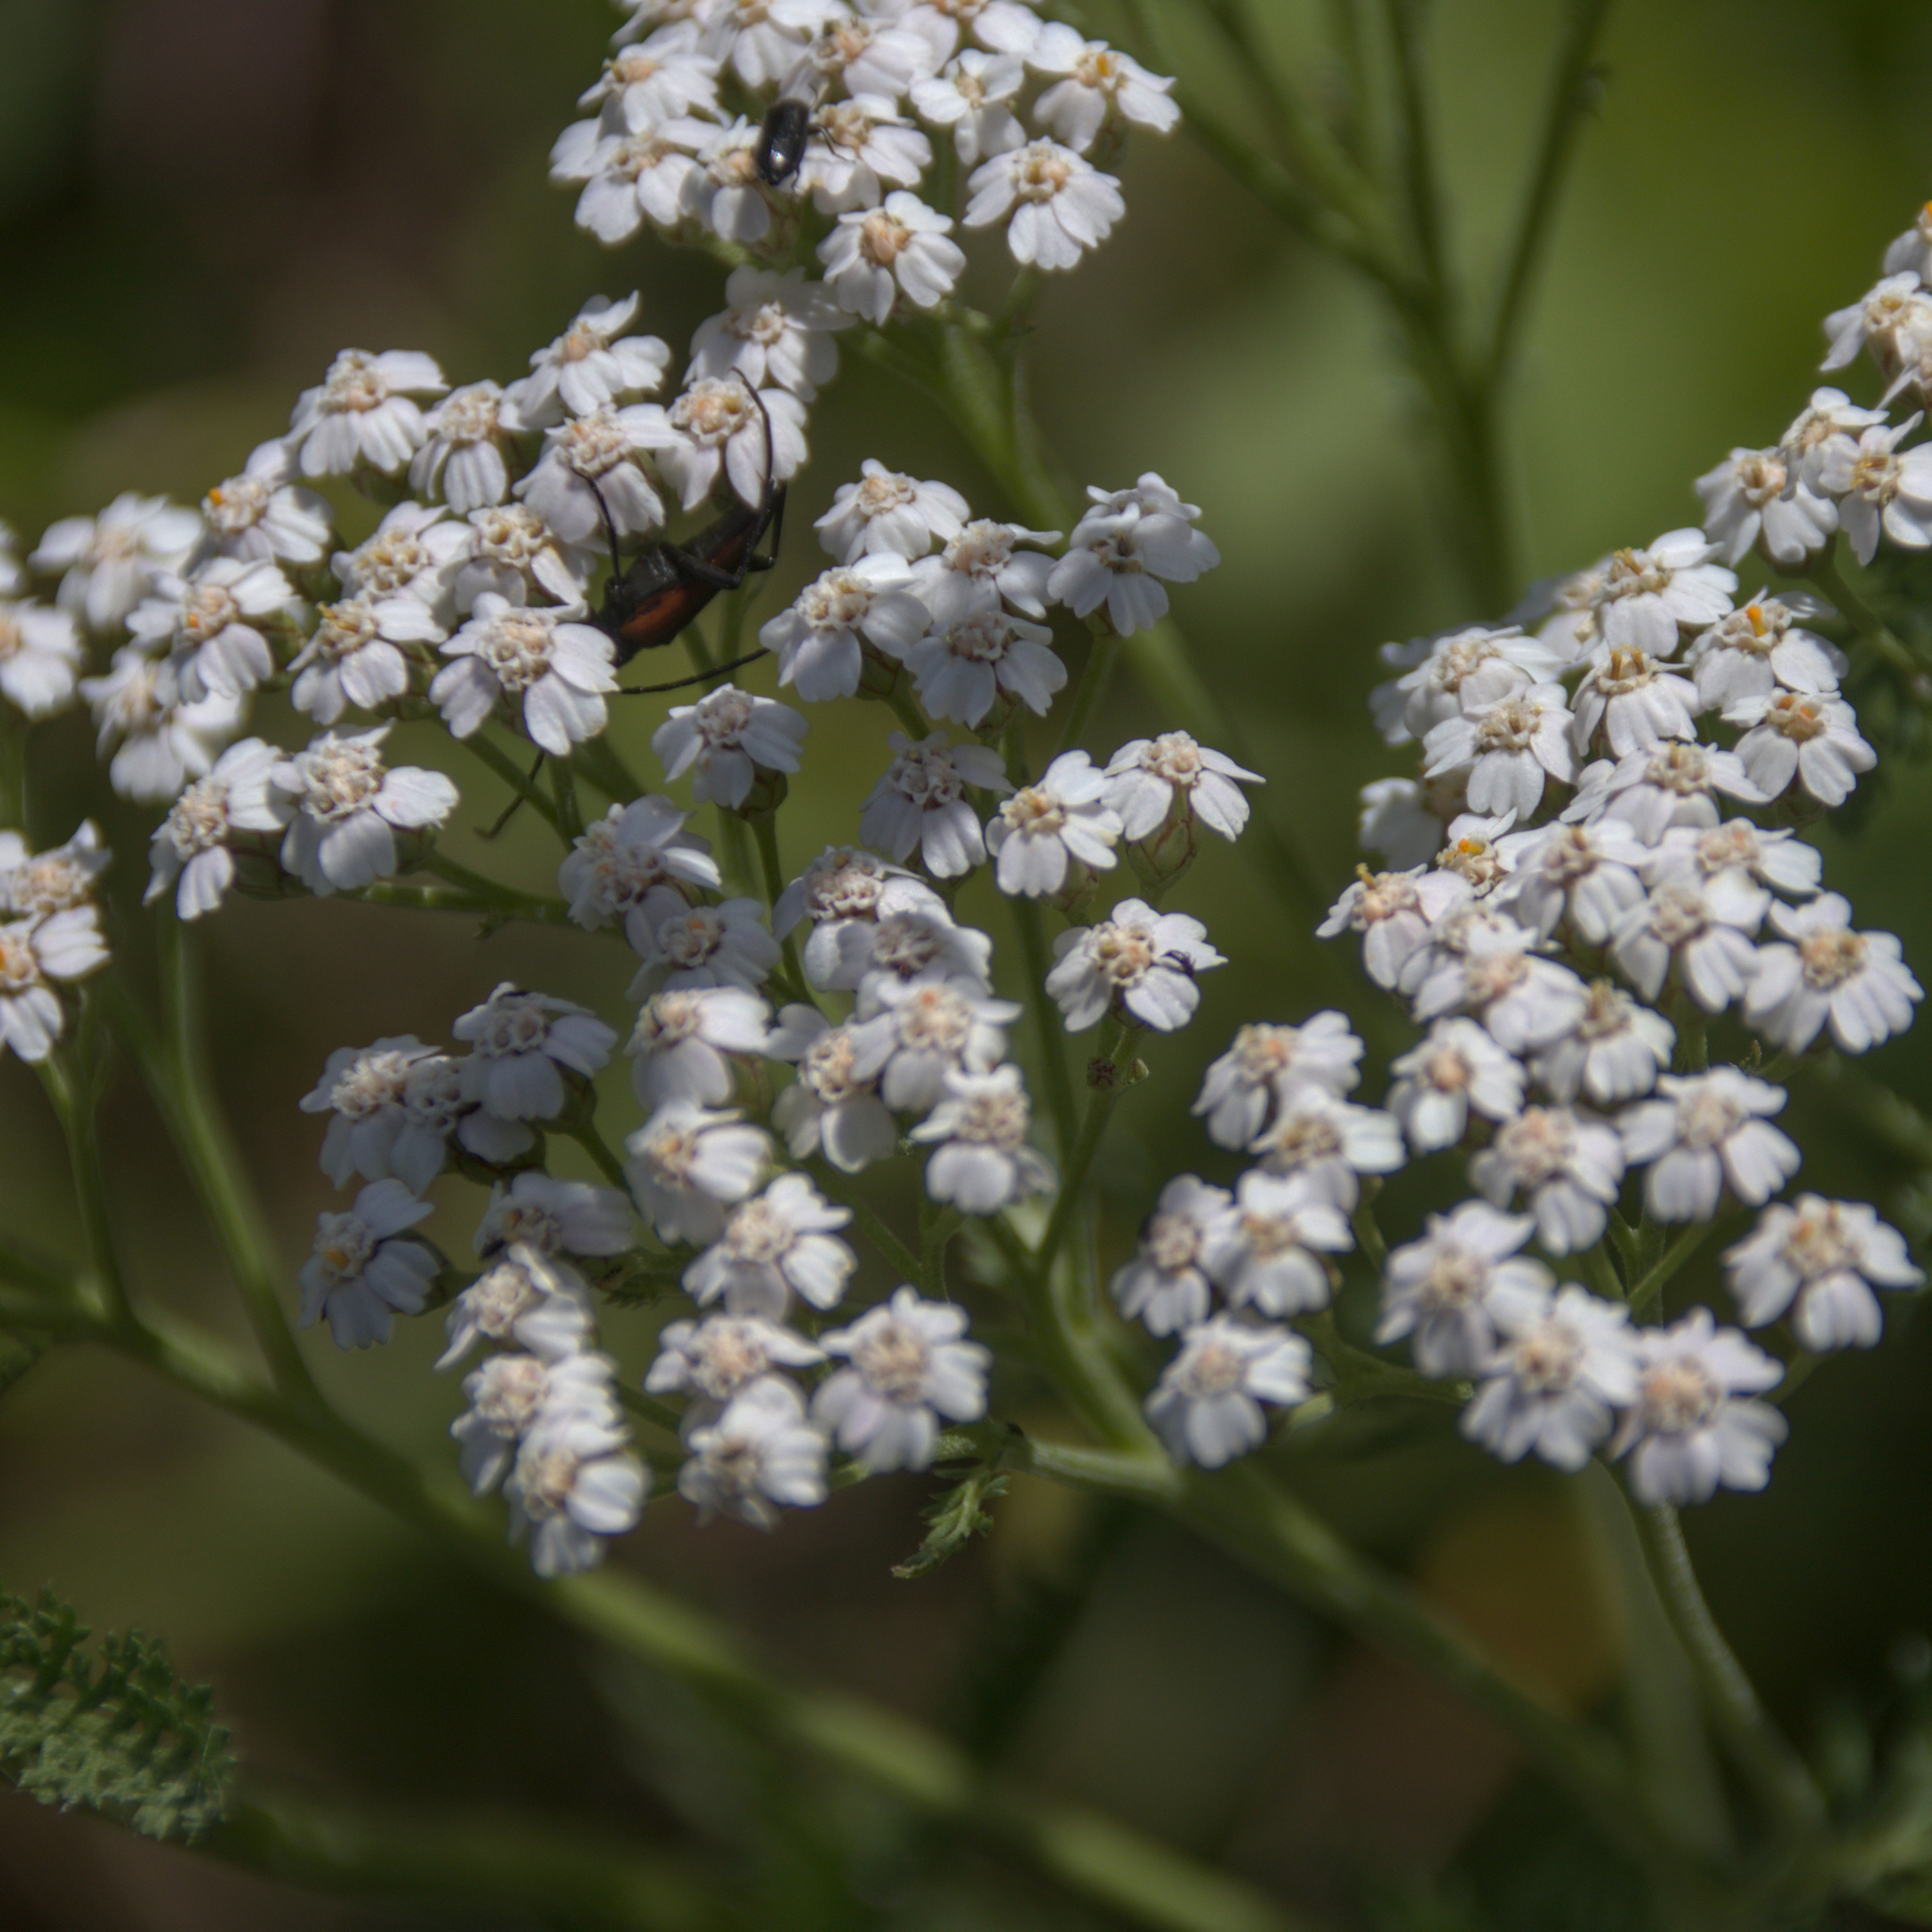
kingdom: Plantae
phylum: Tracheophyta
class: Magnoliopsida
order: Asterales
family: Asteraceae
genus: Achillea
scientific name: Achillea millefolium
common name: Yarrow
